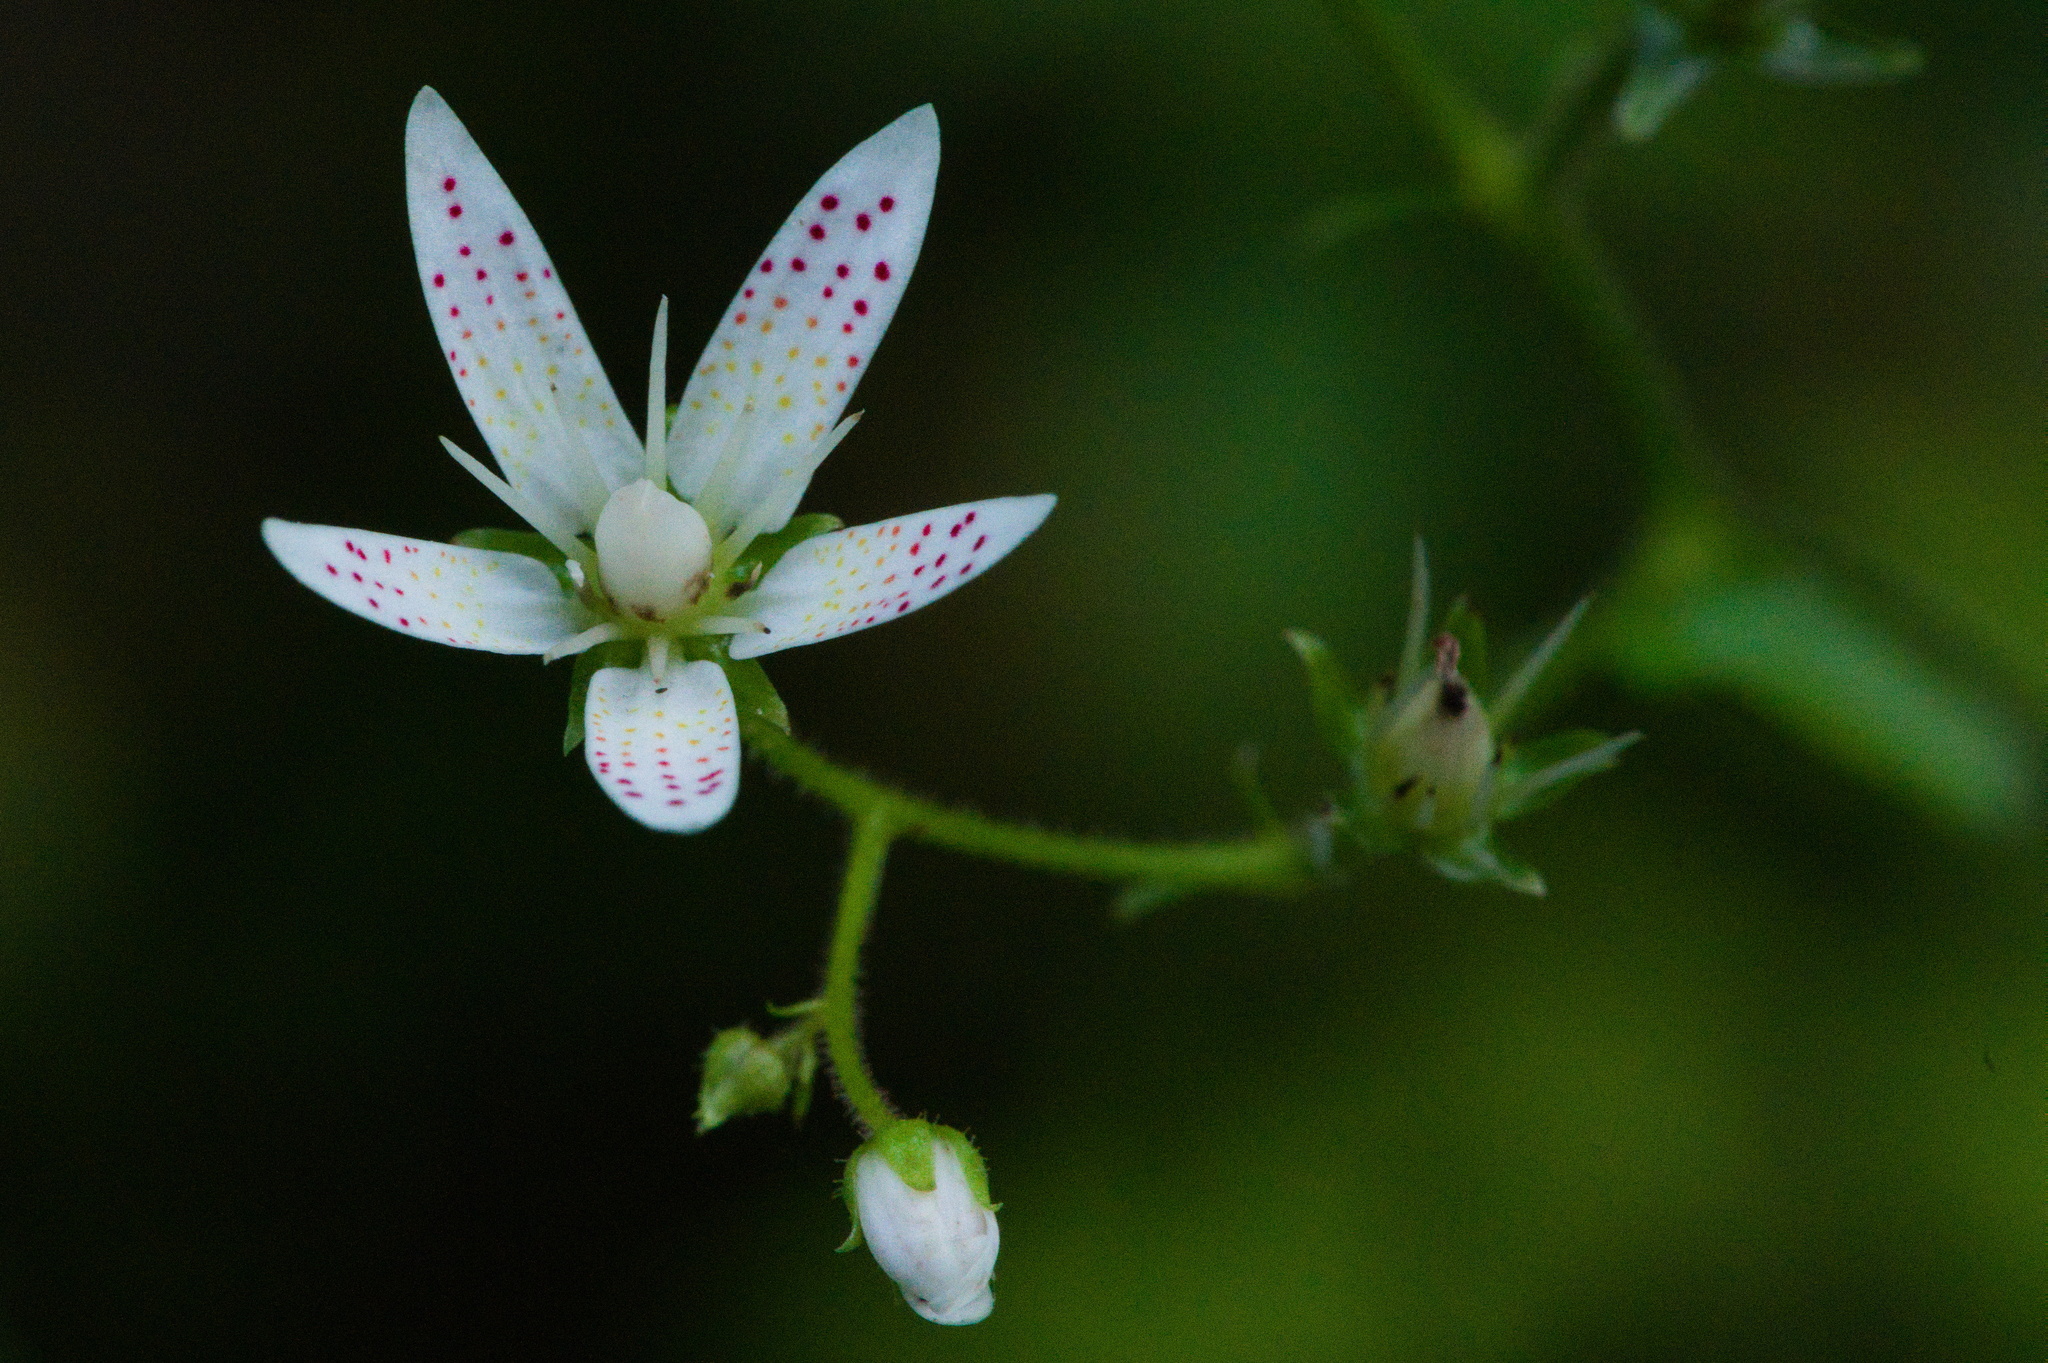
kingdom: Plantae
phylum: Tracheophyta
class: Magnoliopsida
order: Saxifragales
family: Saxifragaceae
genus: Saxifraga
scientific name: Saxifraga rotundifolia
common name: Round-leaved saxifrage
